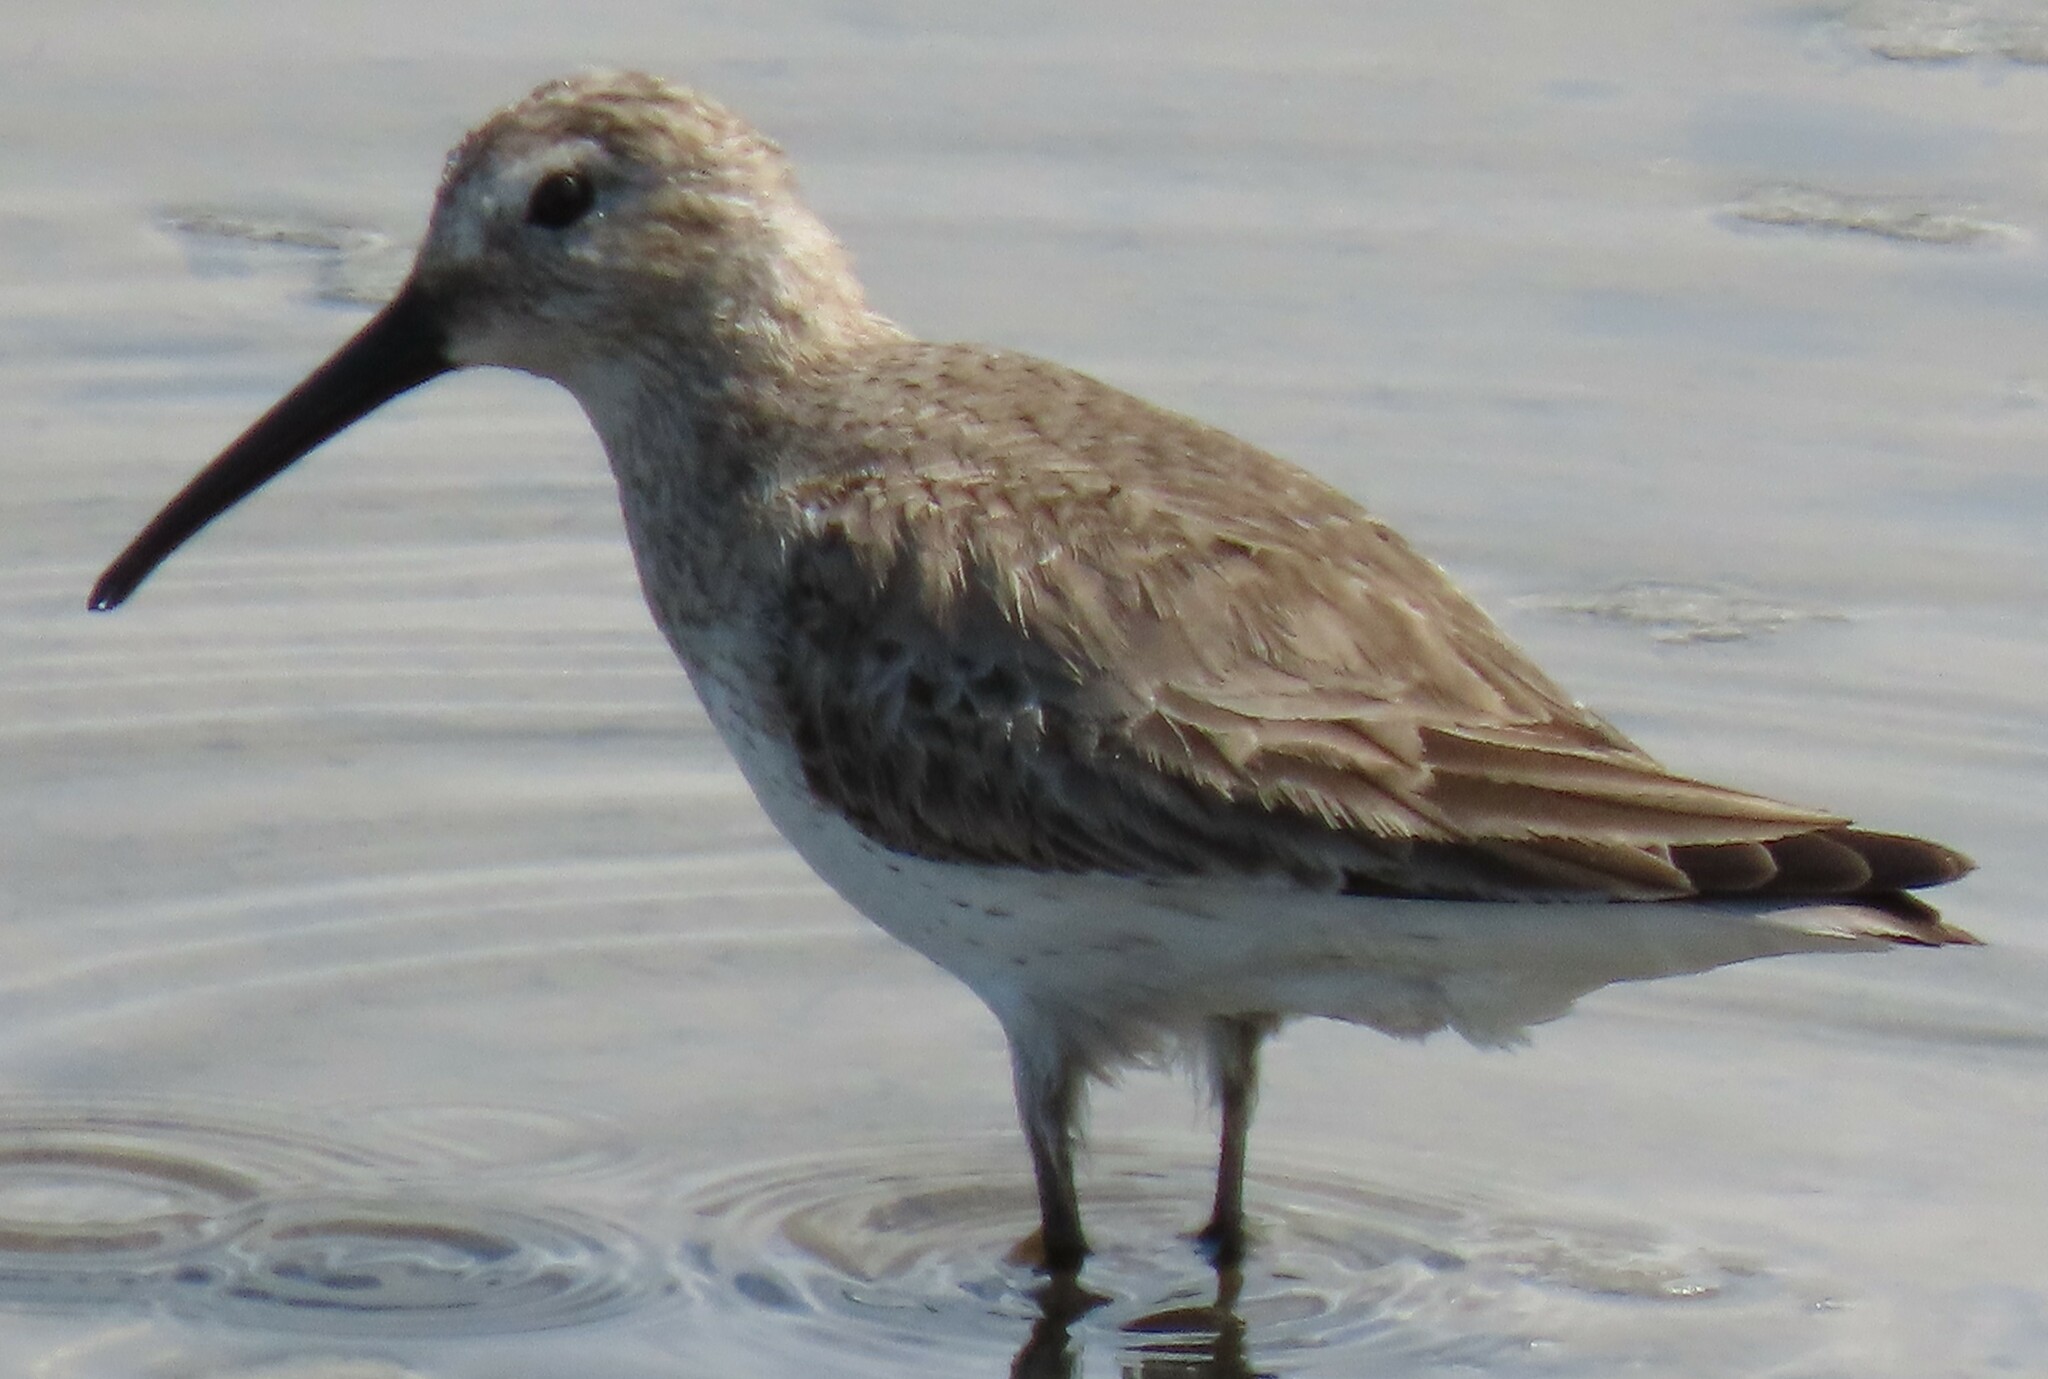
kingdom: Animalia
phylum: Chordata
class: Aves
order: Charadriiformes
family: Scolopacidae
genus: Calidris
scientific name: Calidris alpina
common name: Dunlin
